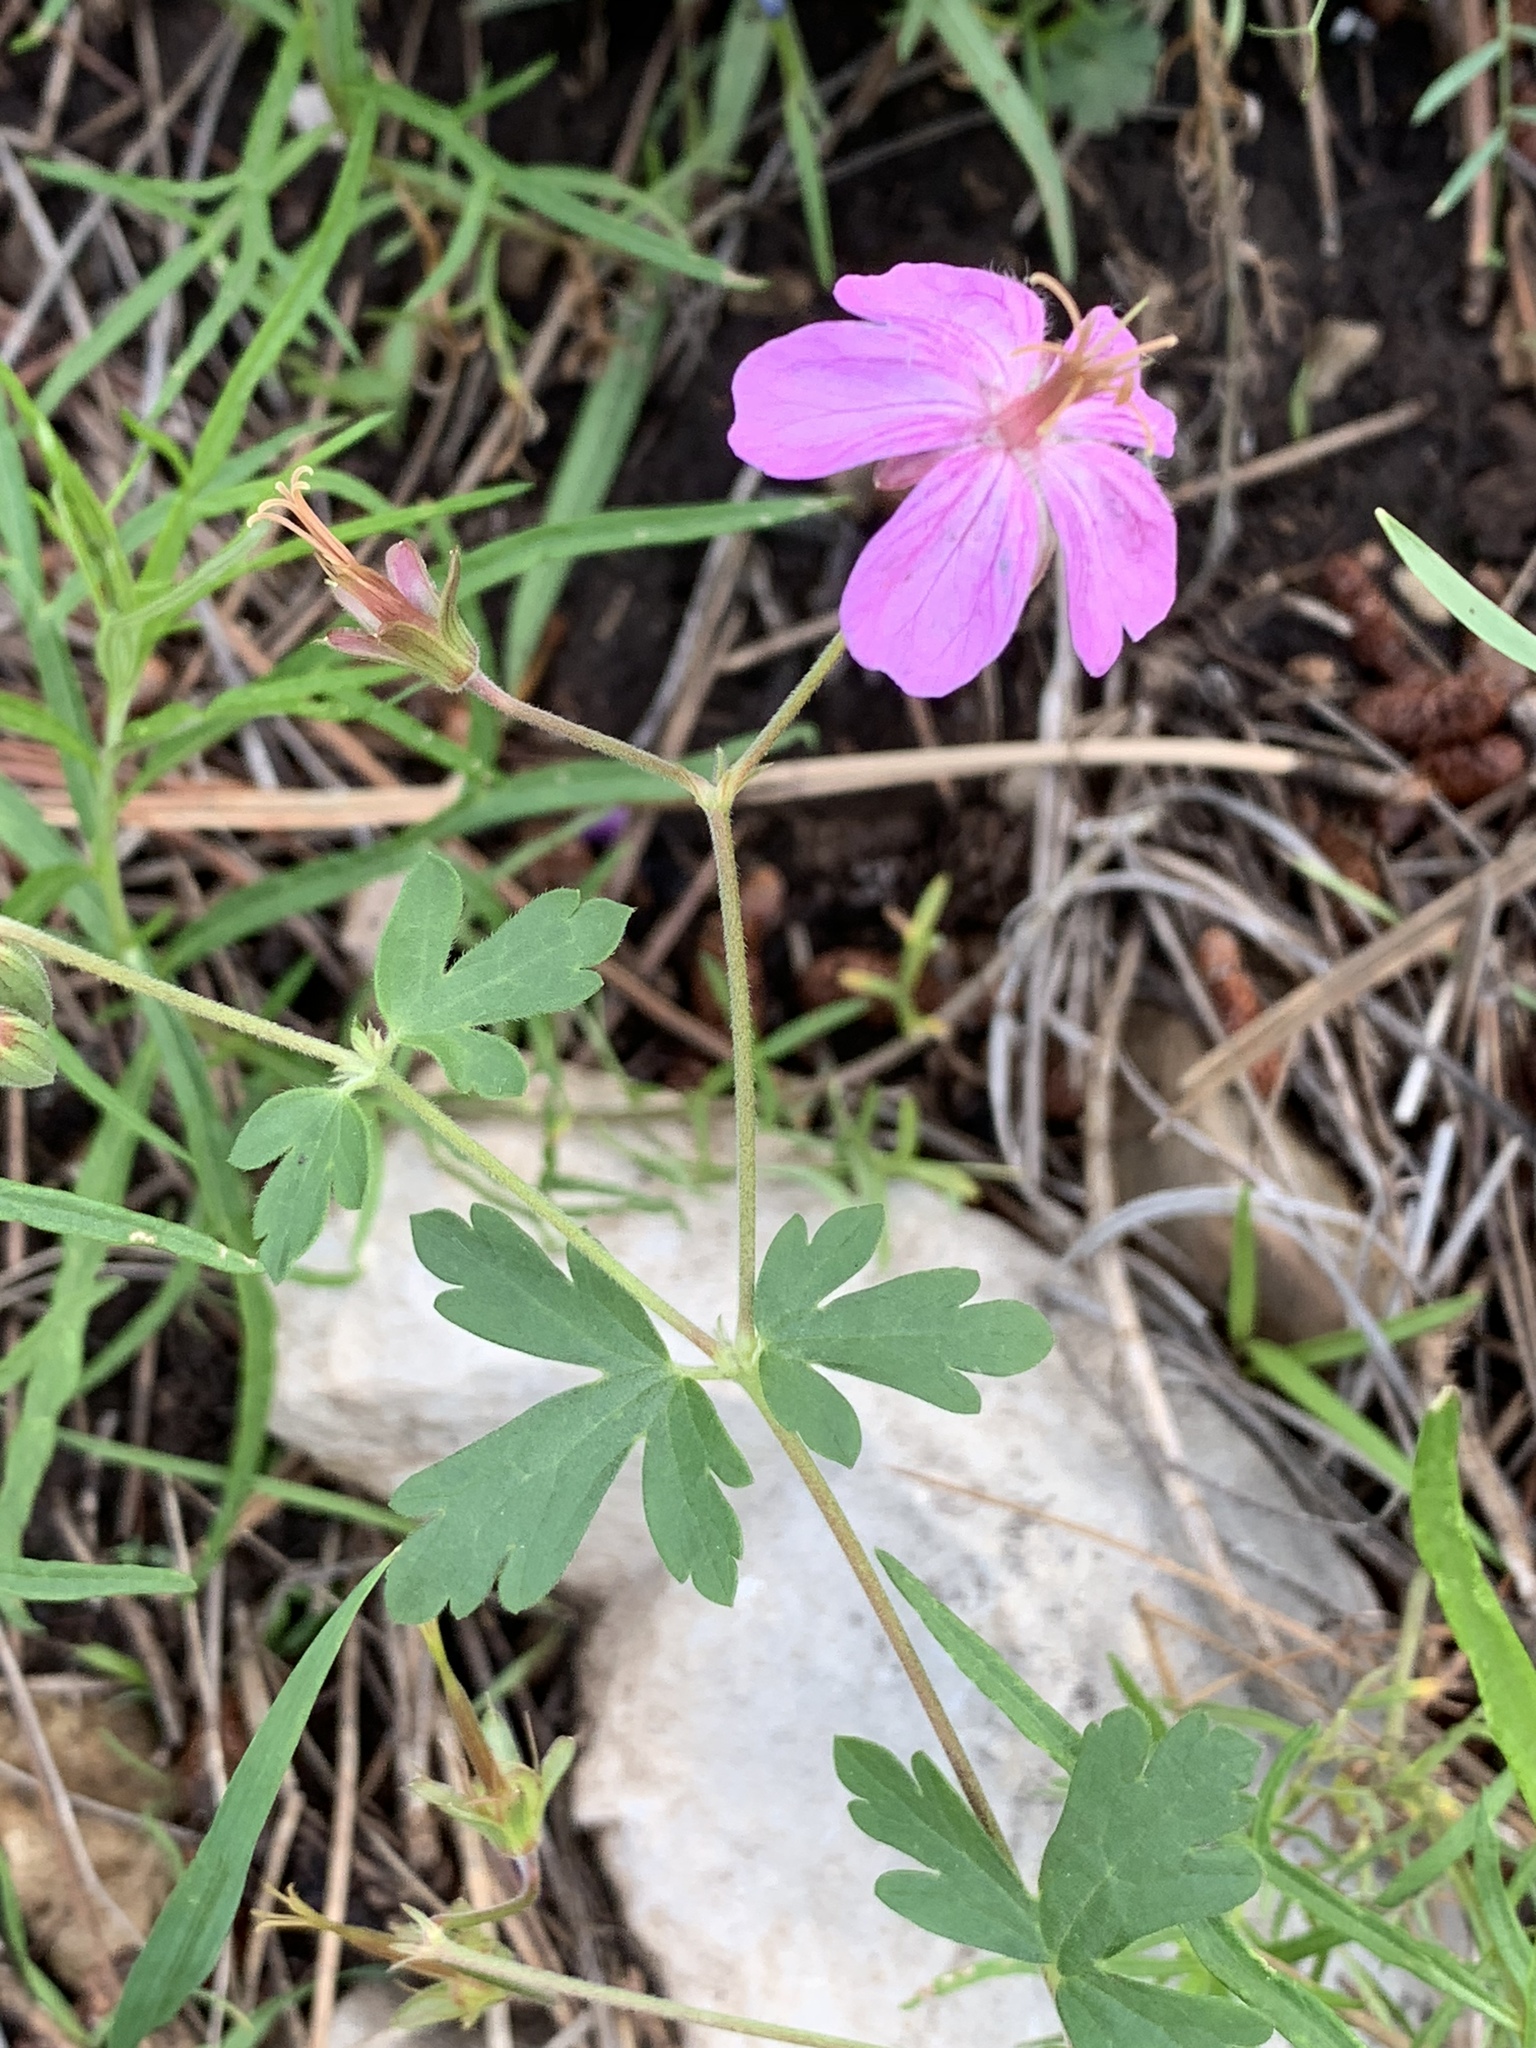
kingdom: Plantae
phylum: Tracheophyta
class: Magnoliopsida
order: Geraniales
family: Geraniaceae
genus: Geranium
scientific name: Geranium caespitosum
